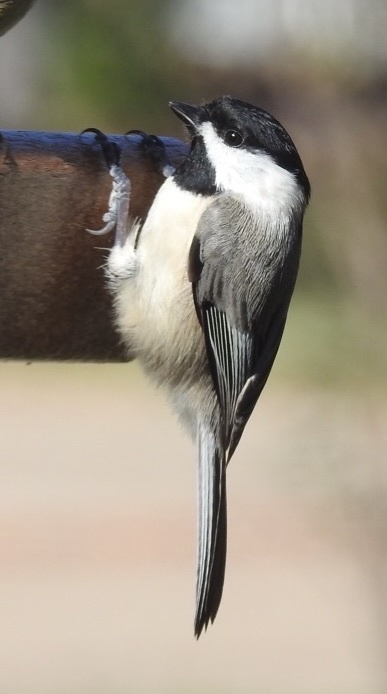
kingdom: Animalia
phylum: Chordata
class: Aves
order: Passeriformes
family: Paridae
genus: Poecile
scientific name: Poecile carolinensis
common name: Carolina chickadee
